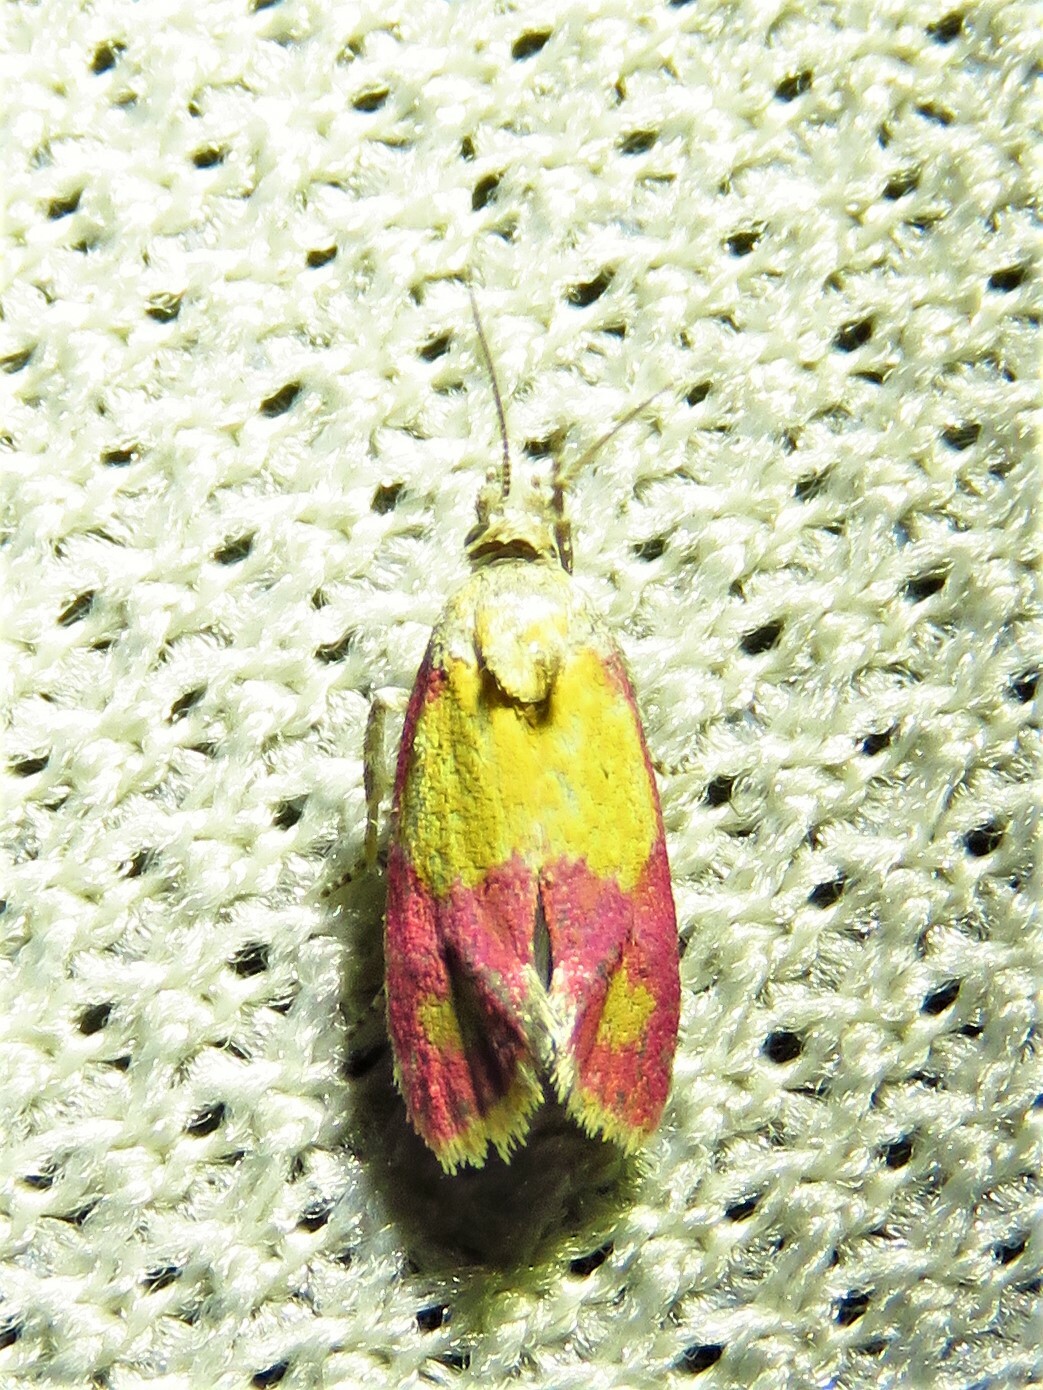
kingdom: Animalia
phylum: Arthropoda
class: Insecta
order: Lepidoptera
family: Tortricidae
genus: Conchylis
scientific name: Conchylis oenotherana
